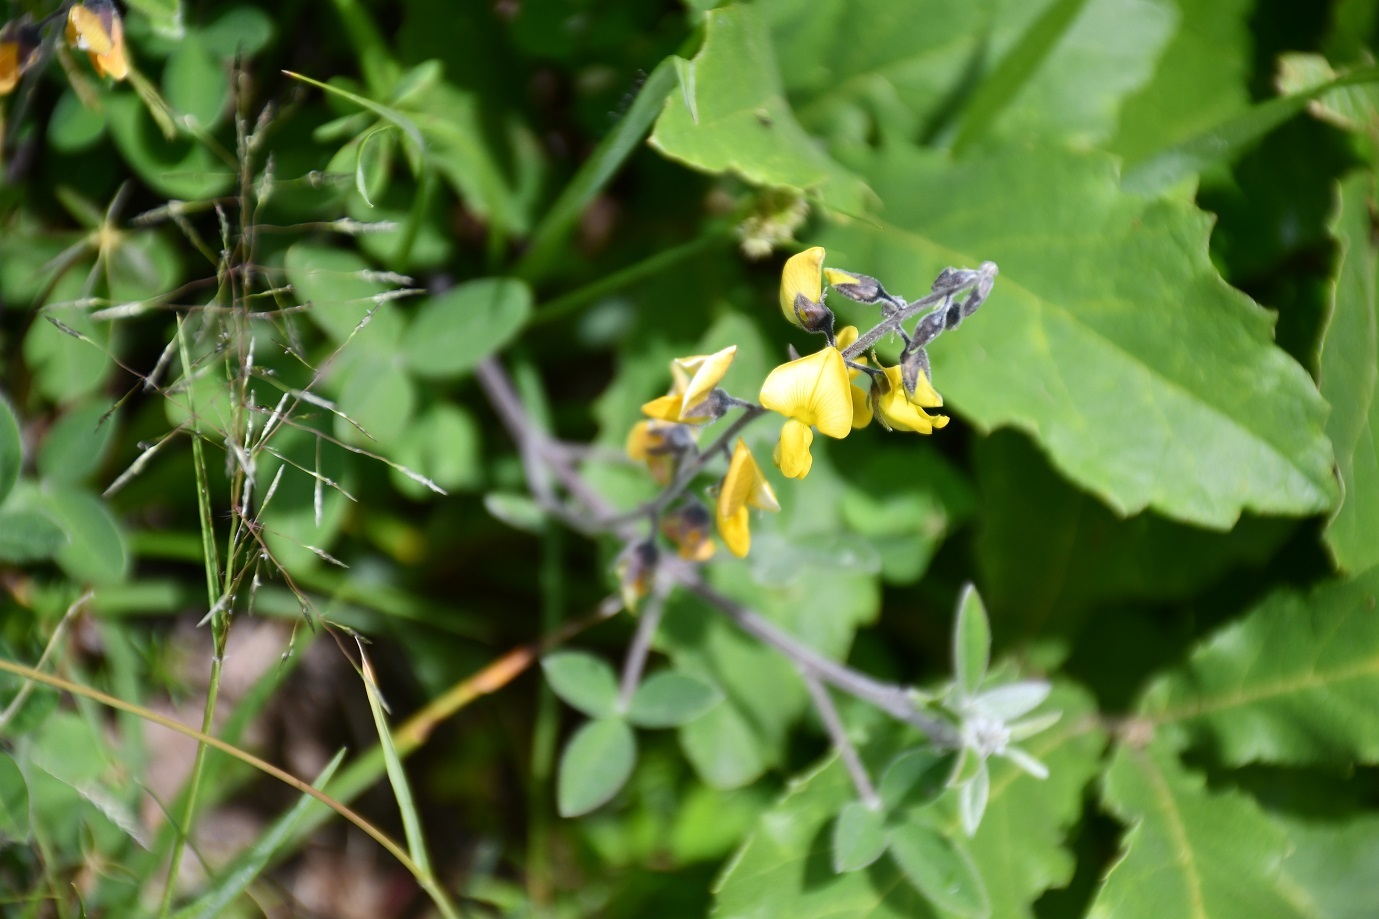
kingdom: Plantae
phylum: Tracheophyta
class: Magnoliopsida
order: Fabales
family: Fabaceae
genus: Crotalaria
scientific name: Crotalaria pumila
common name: Low rattlebox
